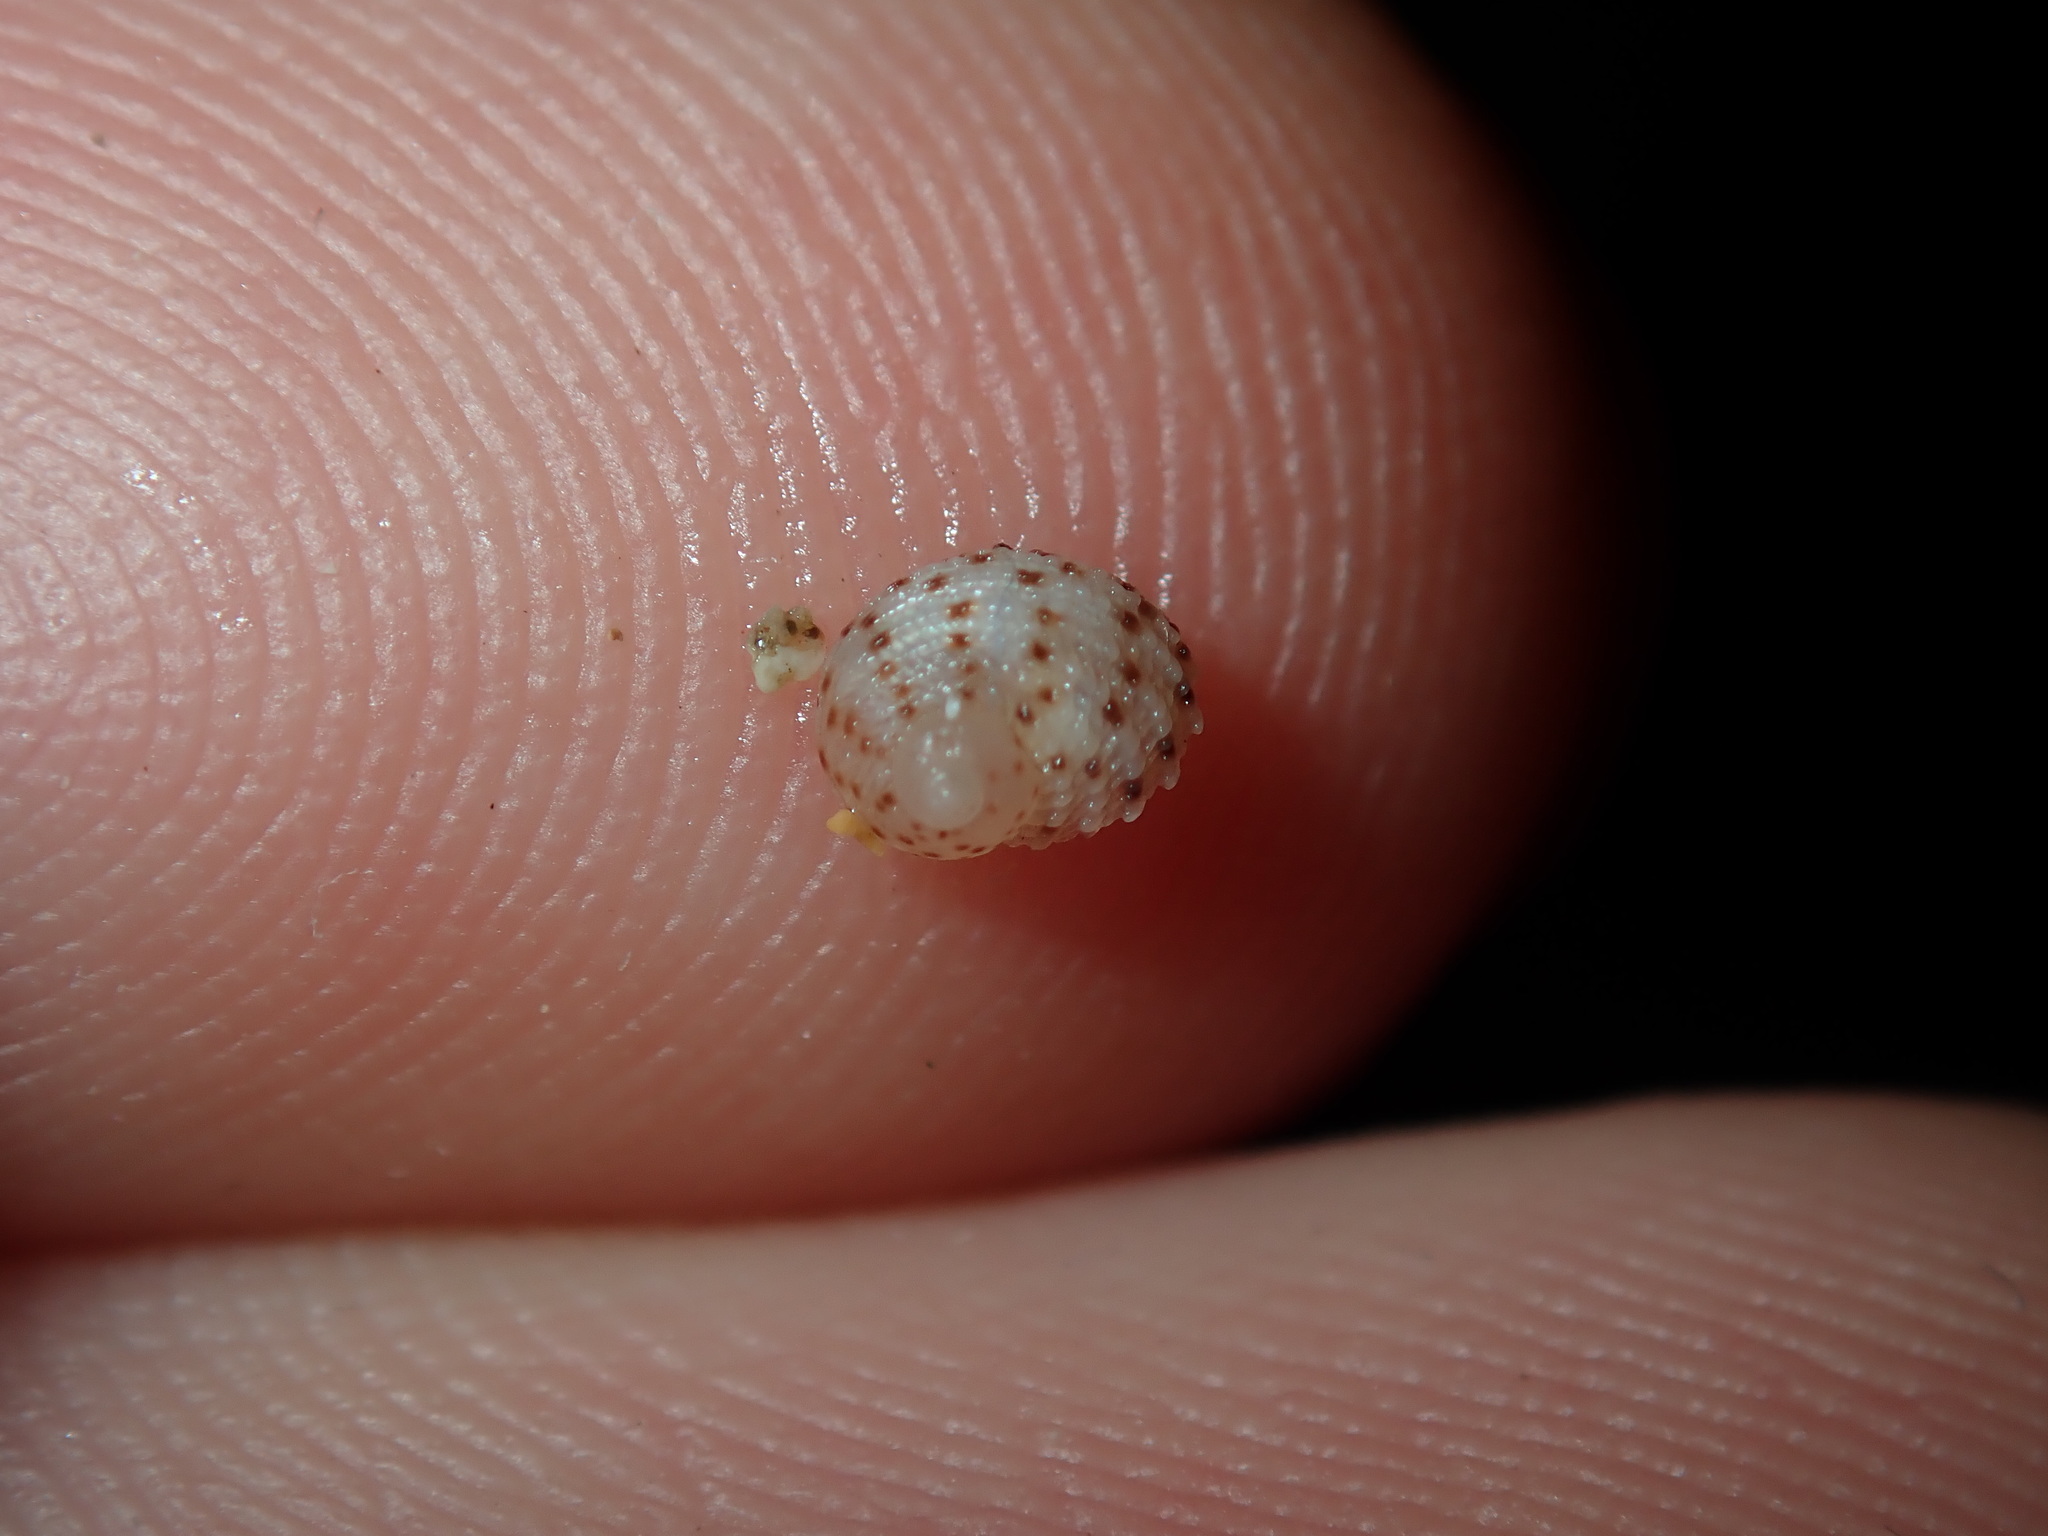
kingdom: Animalia
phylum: Mollusca
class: Gastropoda
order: Seguenziida
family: Chilodontaidae
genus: Vaceuchelus
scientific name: Vaceuchelus ampullus
